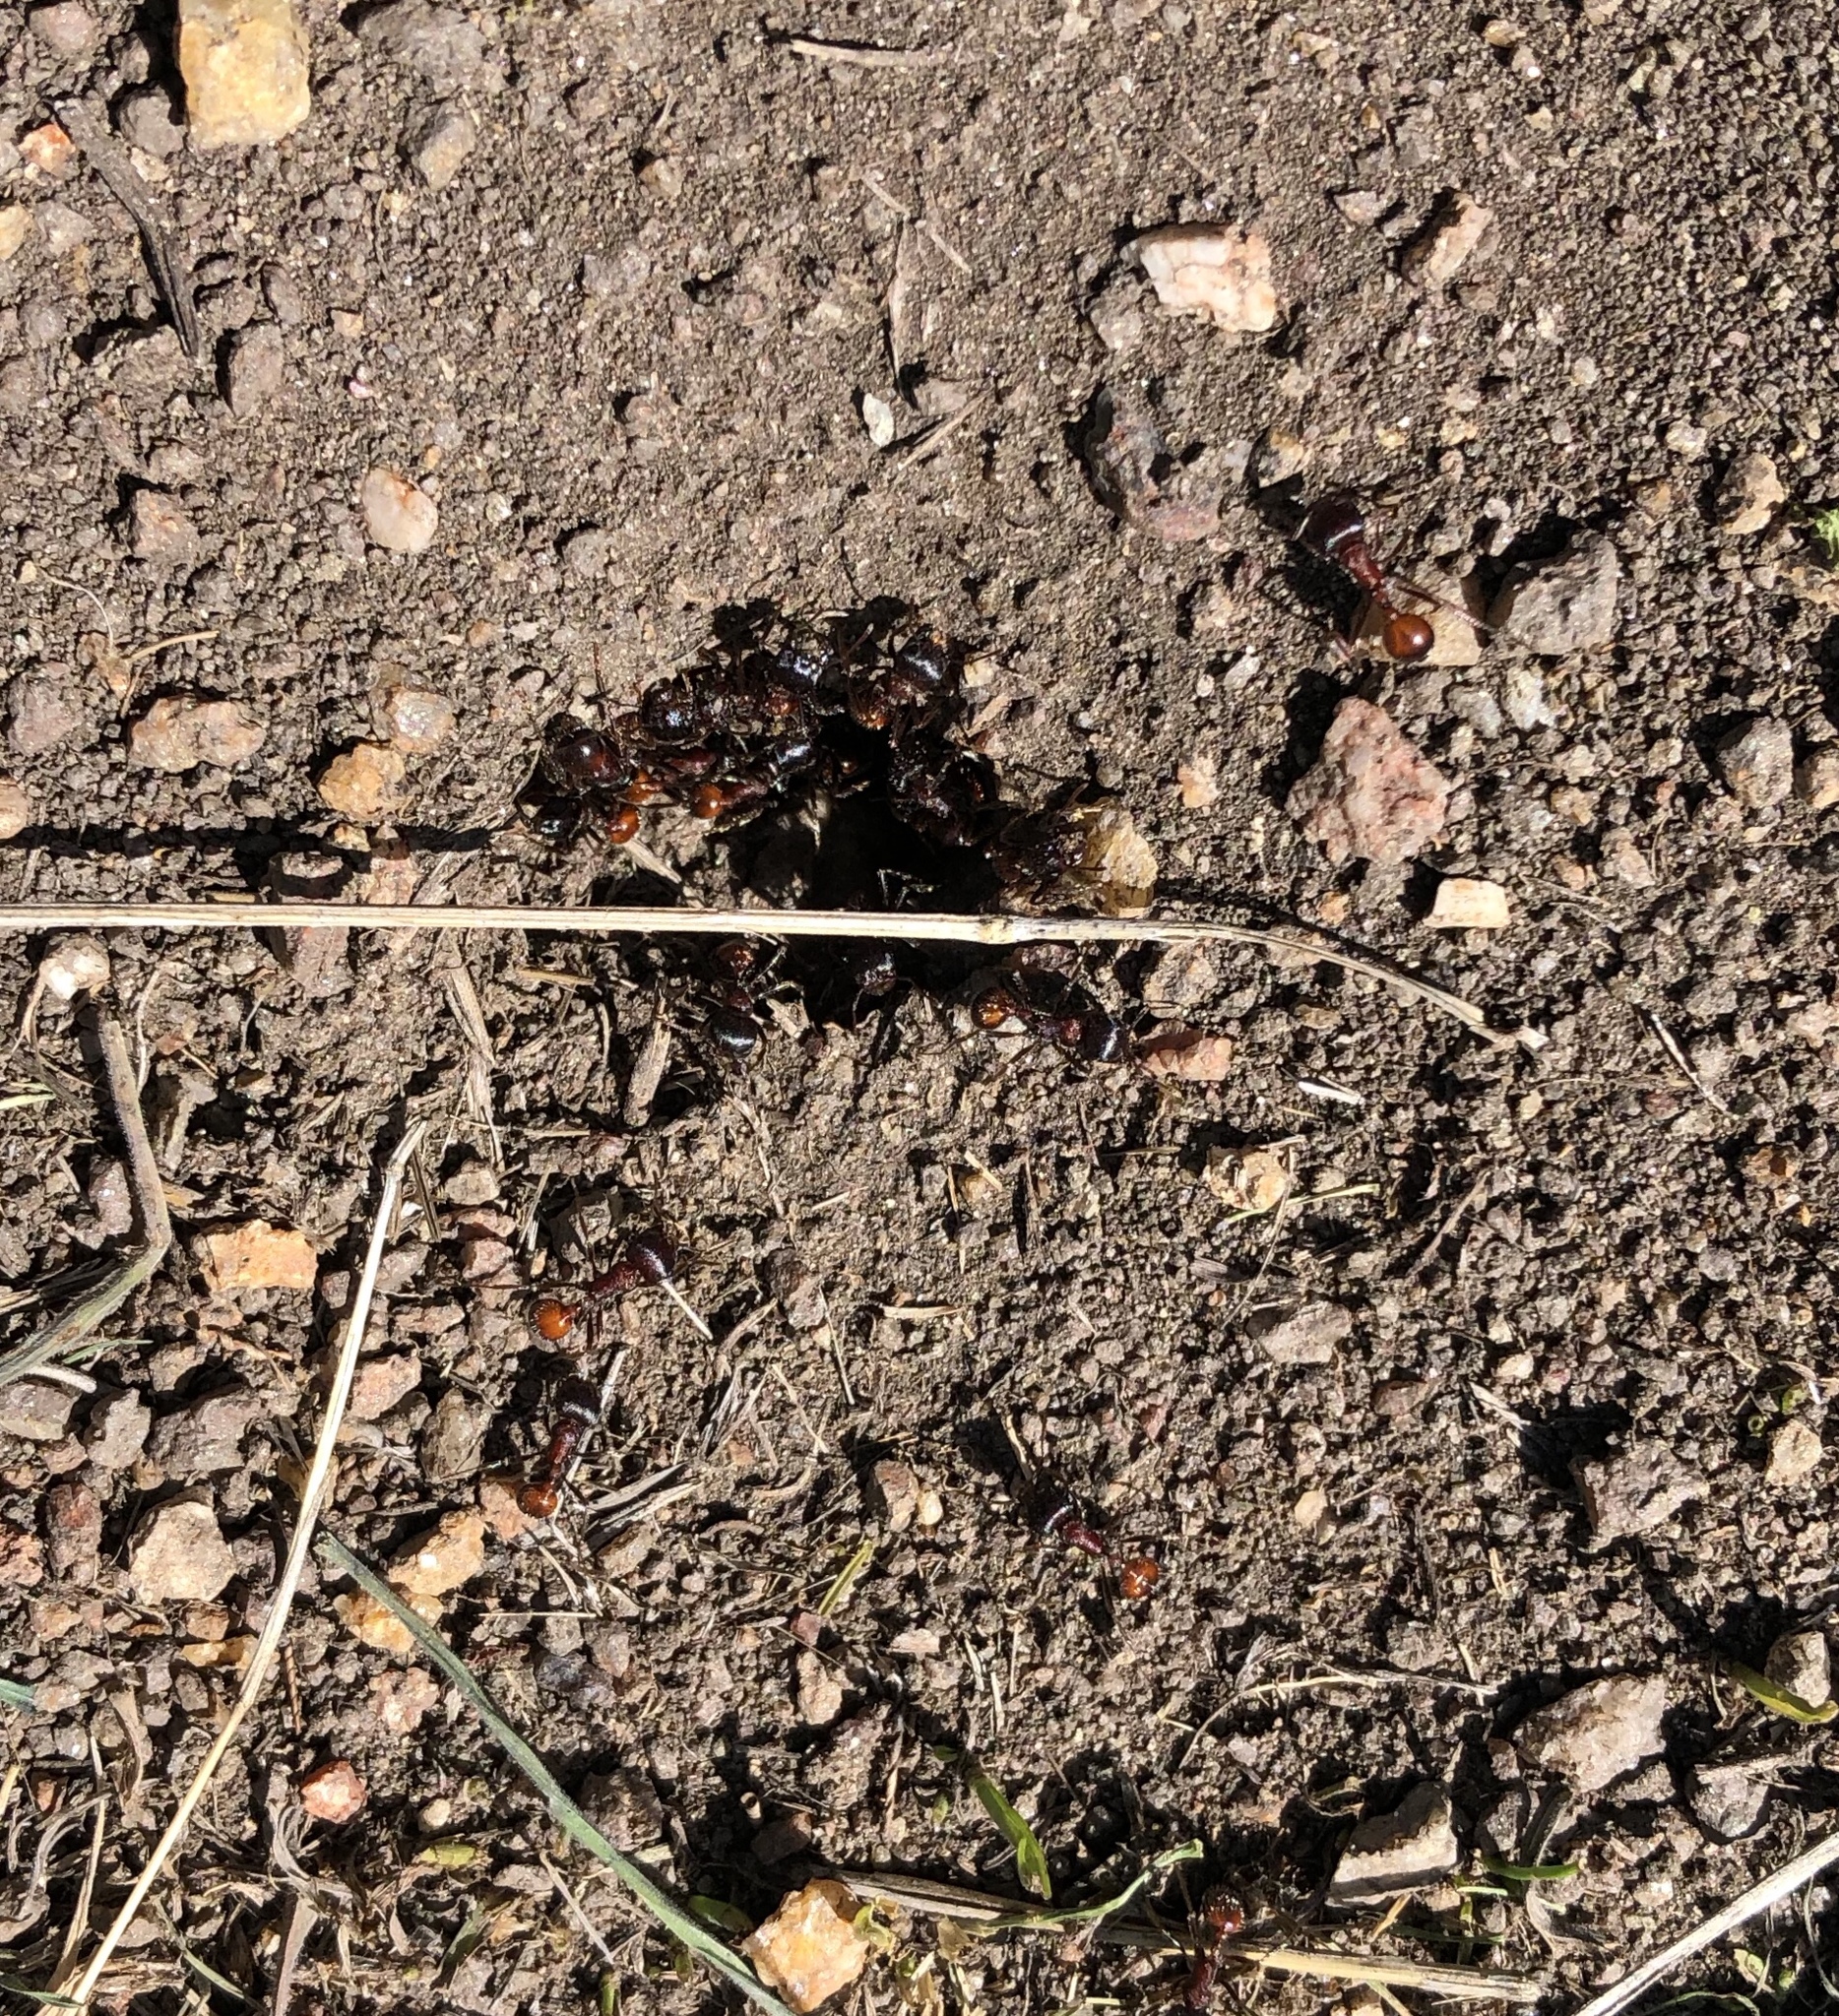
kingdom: Animalia
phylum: Arthropoda
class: Insecta
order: Hymenoptera
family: Formicidae
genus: Pogonomyrmex
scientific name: Pogonomyrmex rugosus
